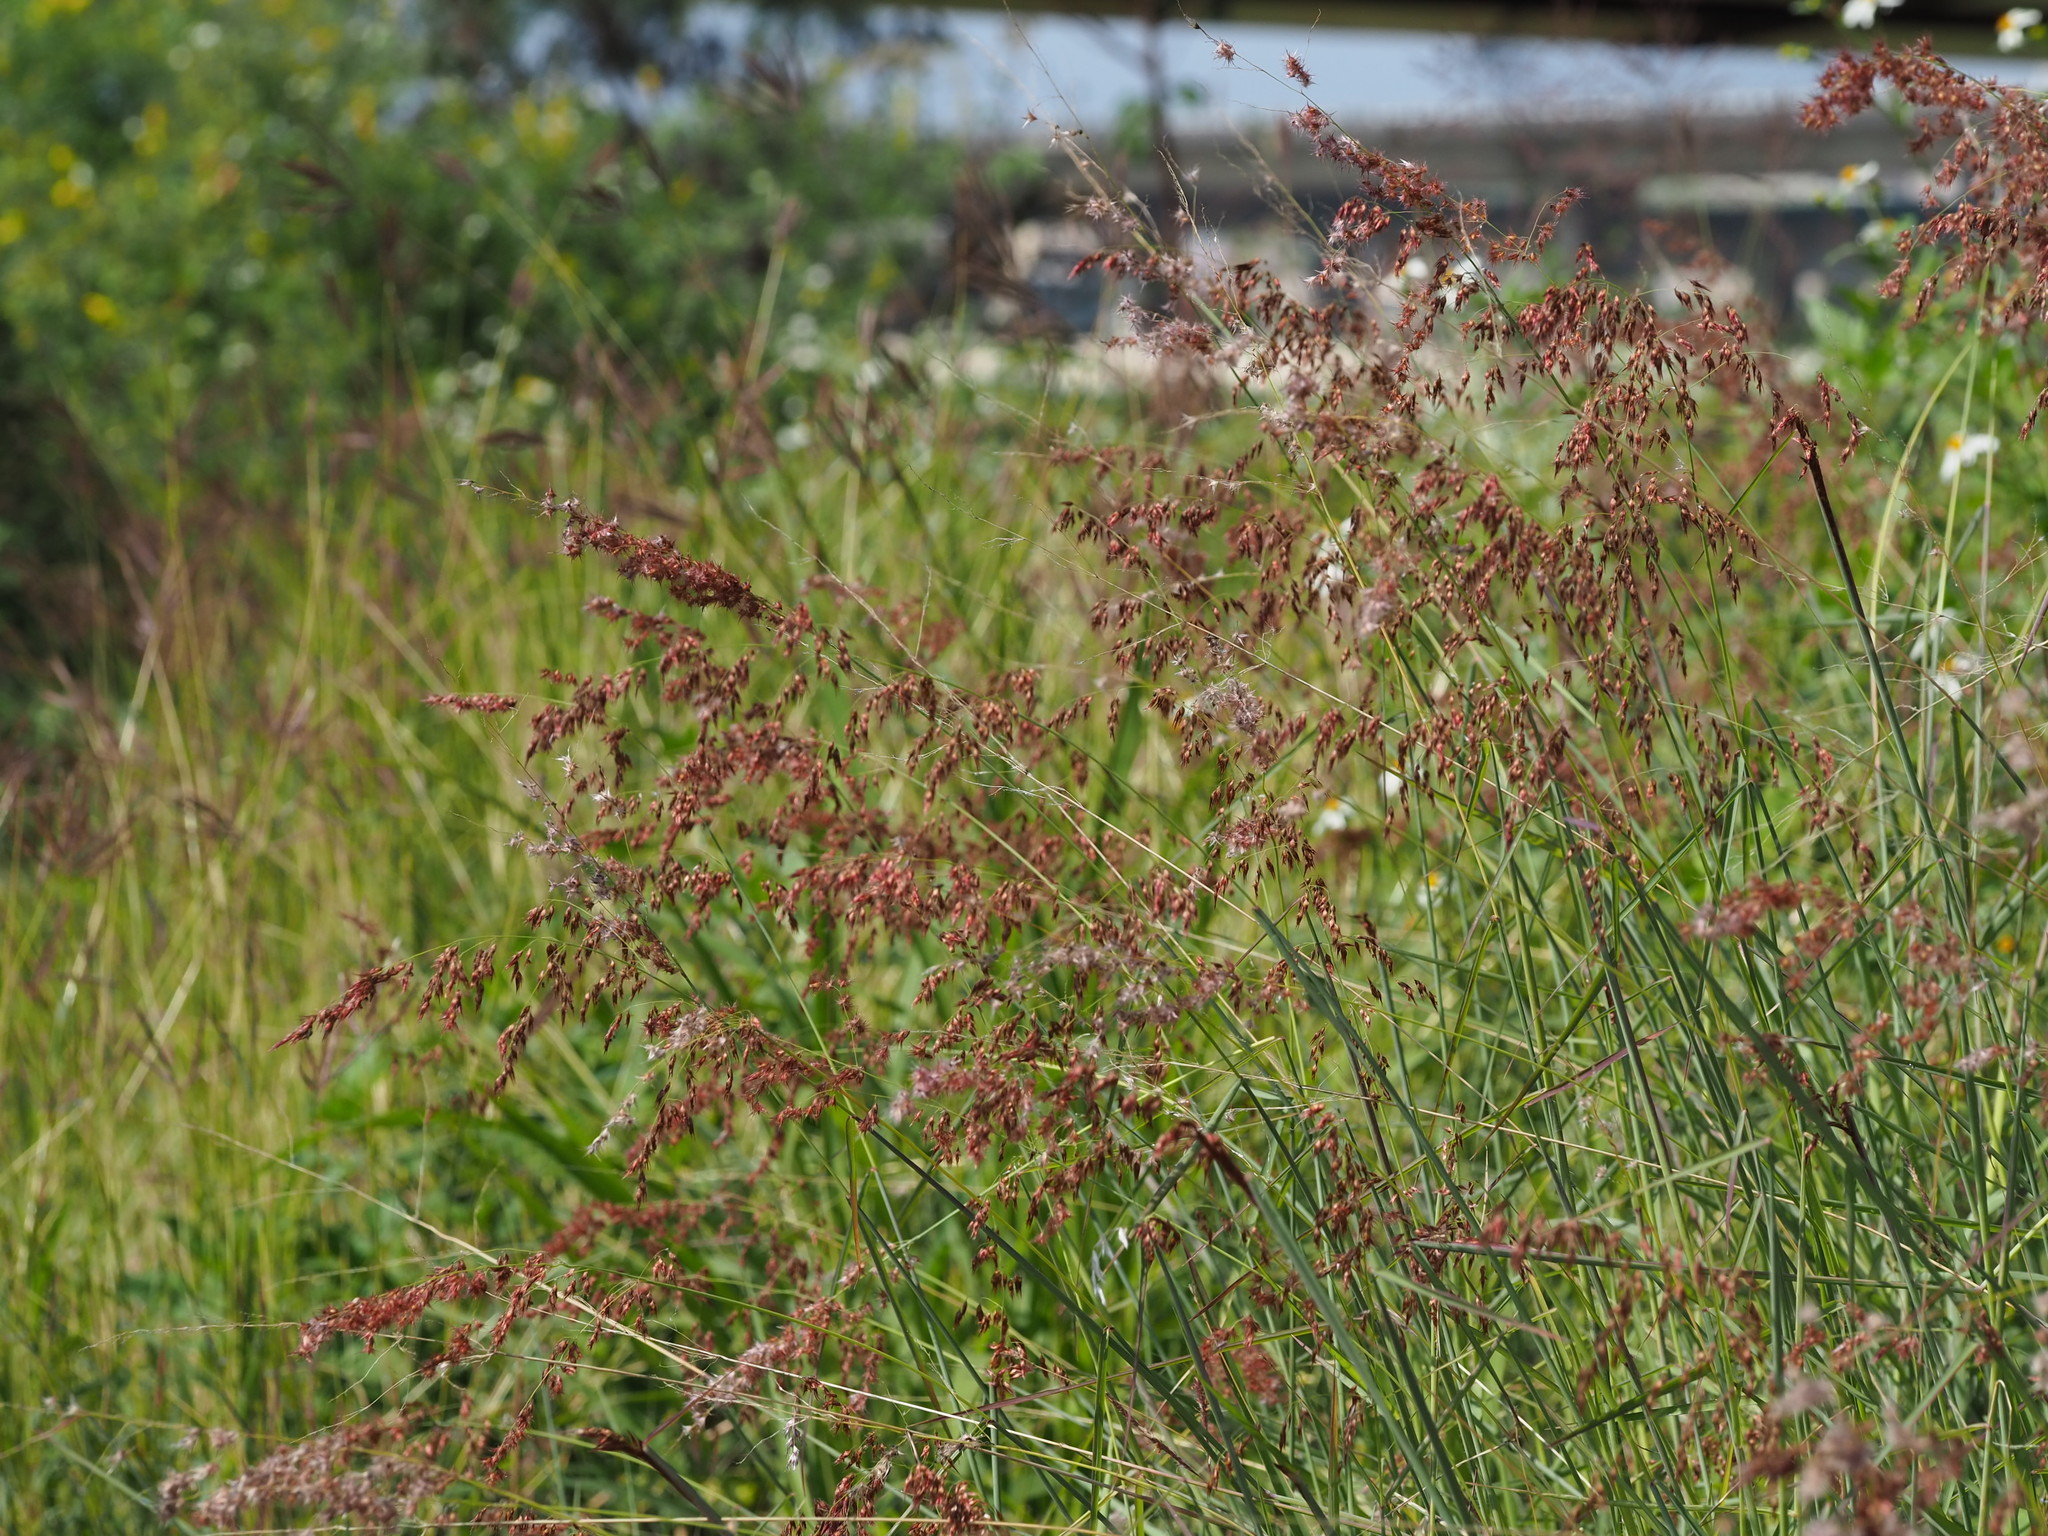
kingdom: Plantae
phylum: Tracheophyta
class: Liliopsida
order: Poales
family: Poaceae
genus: Melinis
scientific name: Melinis repens
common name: Rose natal grass
